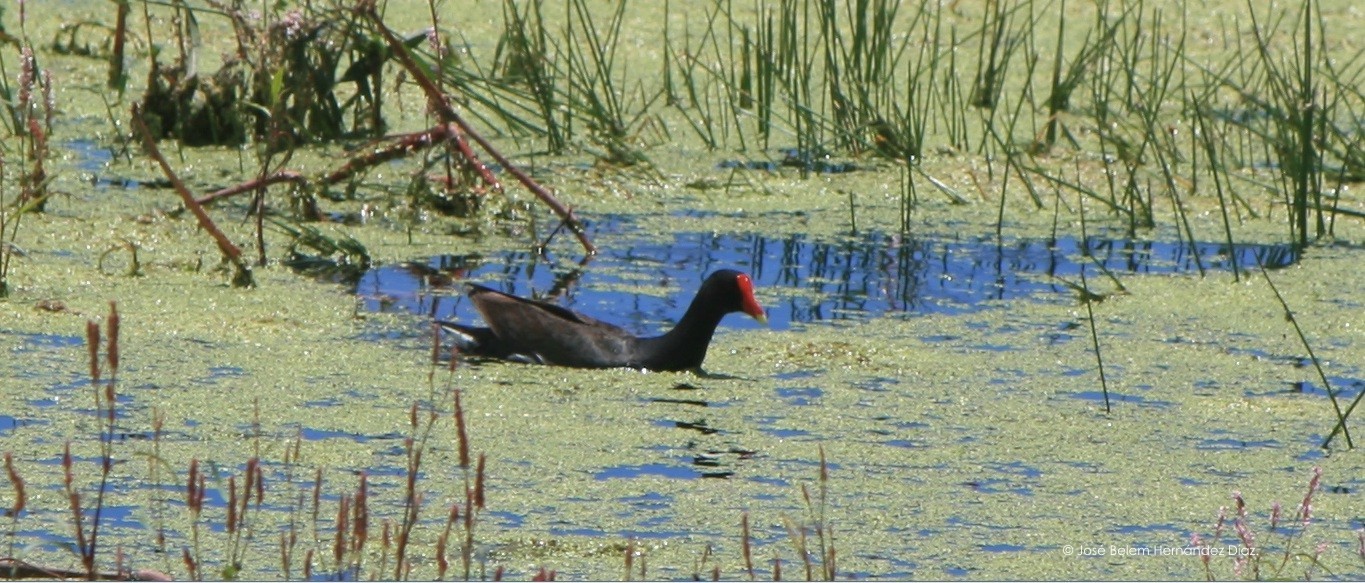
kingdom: Animalia
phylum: Chordata
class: Aves
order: Gruiformes
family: Rallidae
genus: Gallinula
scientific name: Gallinula chloropus
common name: Common moorhen
